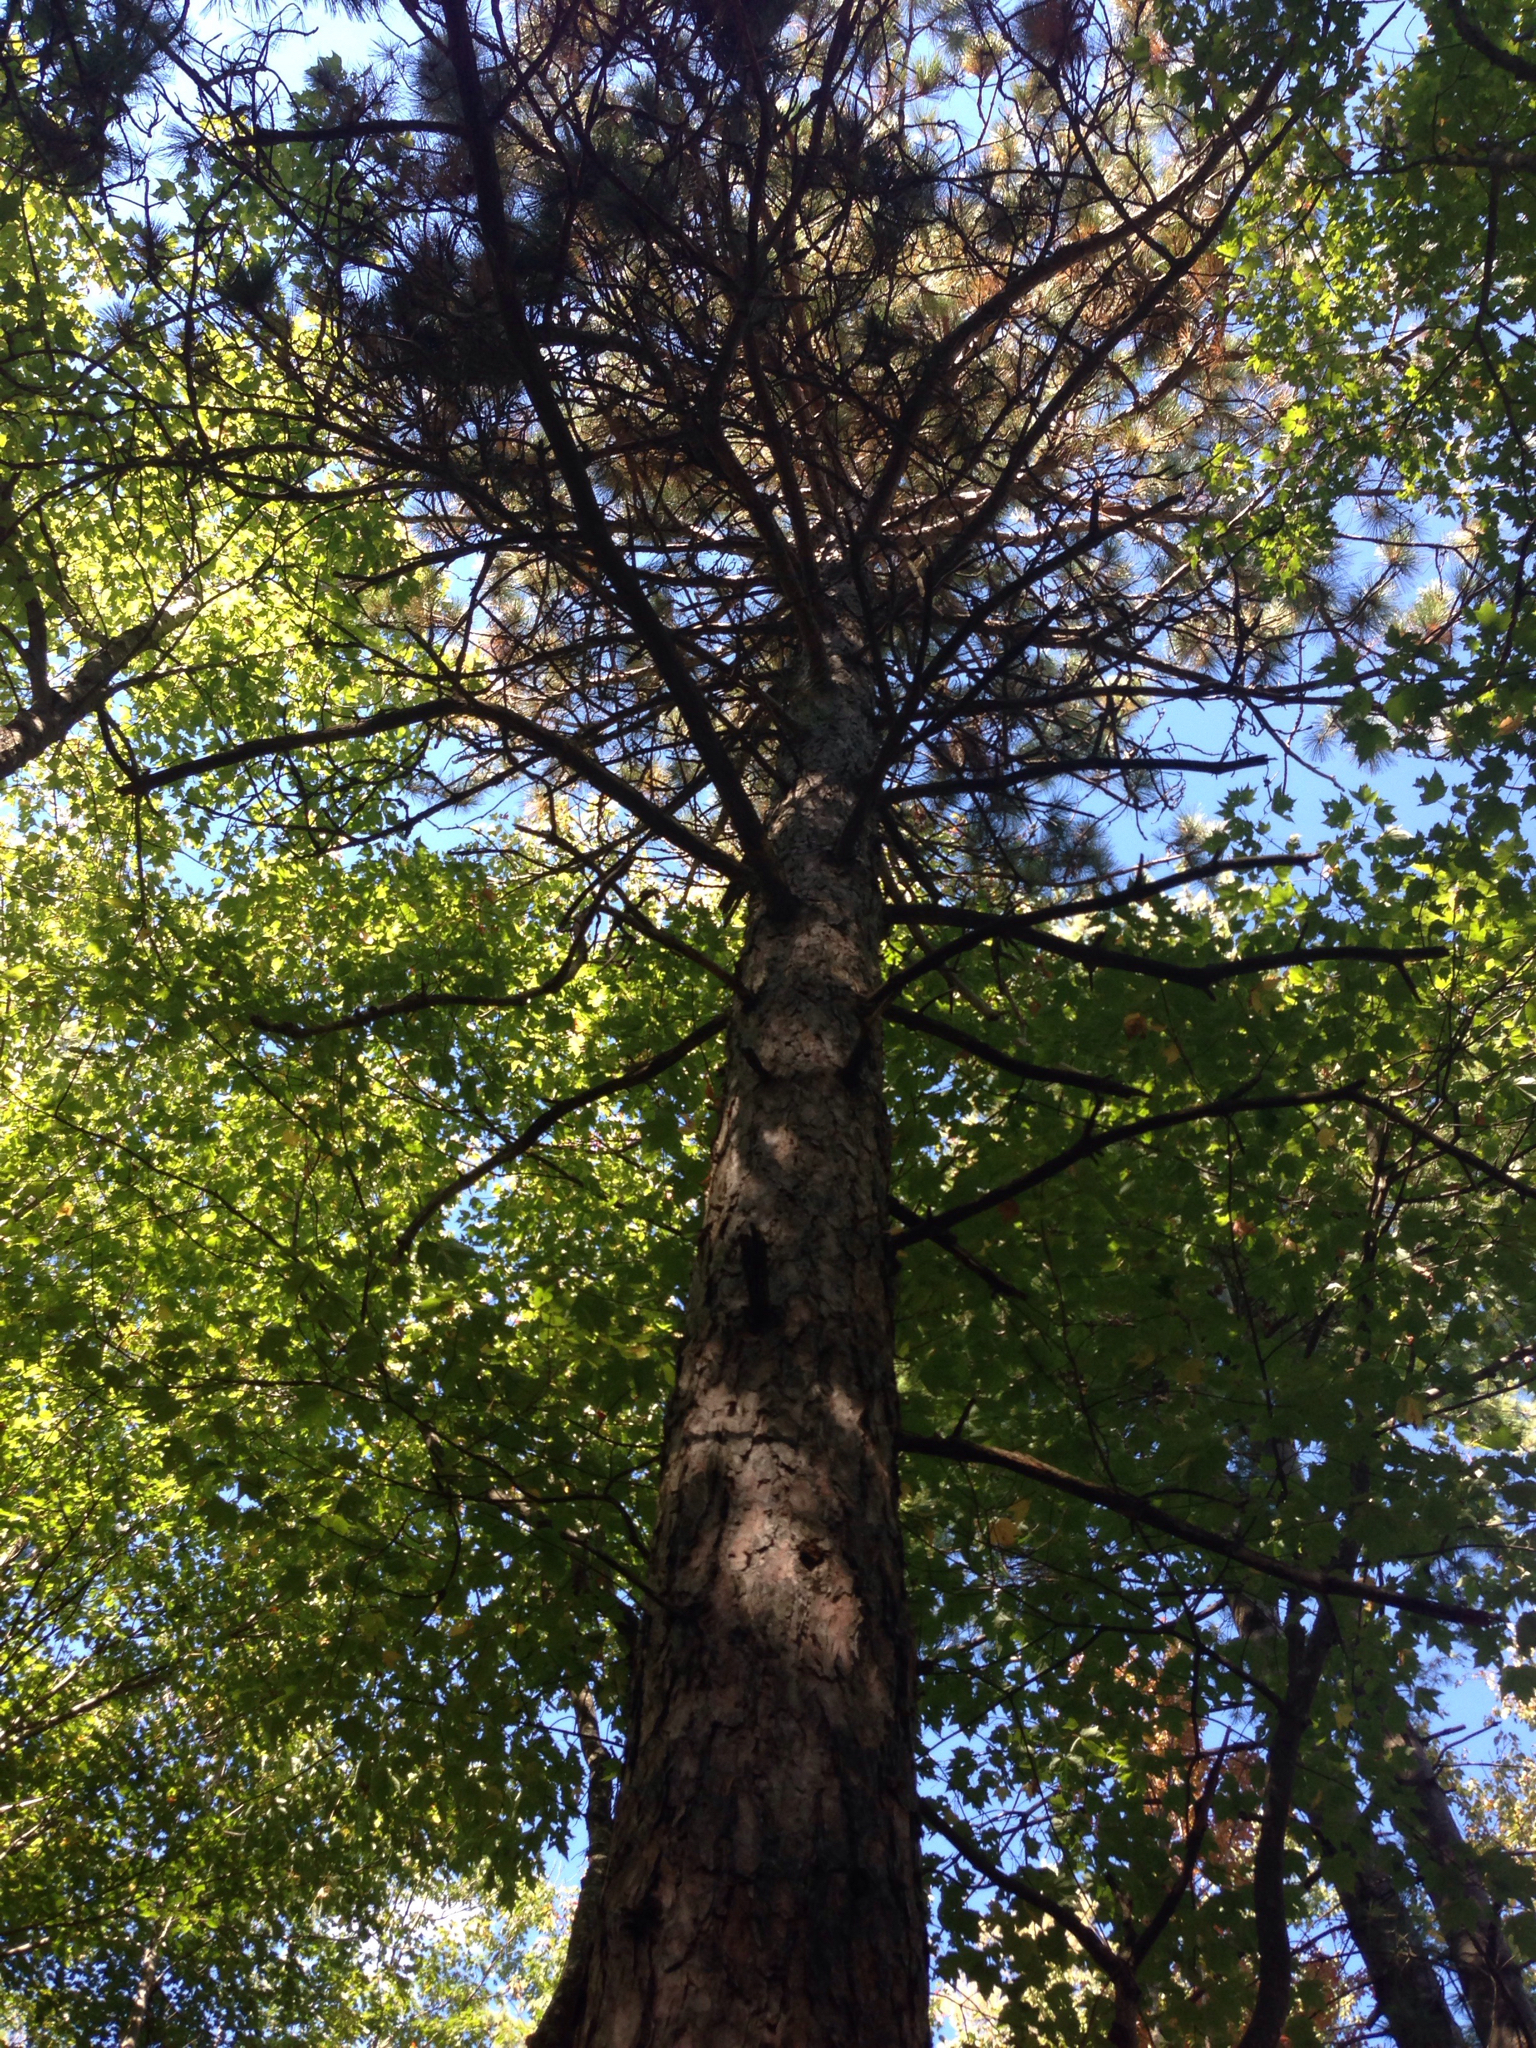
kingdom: Plantae
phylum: Tracheophyta
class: Pinopsida
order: Pinales
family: Pinaceae
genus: Pinus
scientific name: Pinus resinosa
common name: Norway pine
